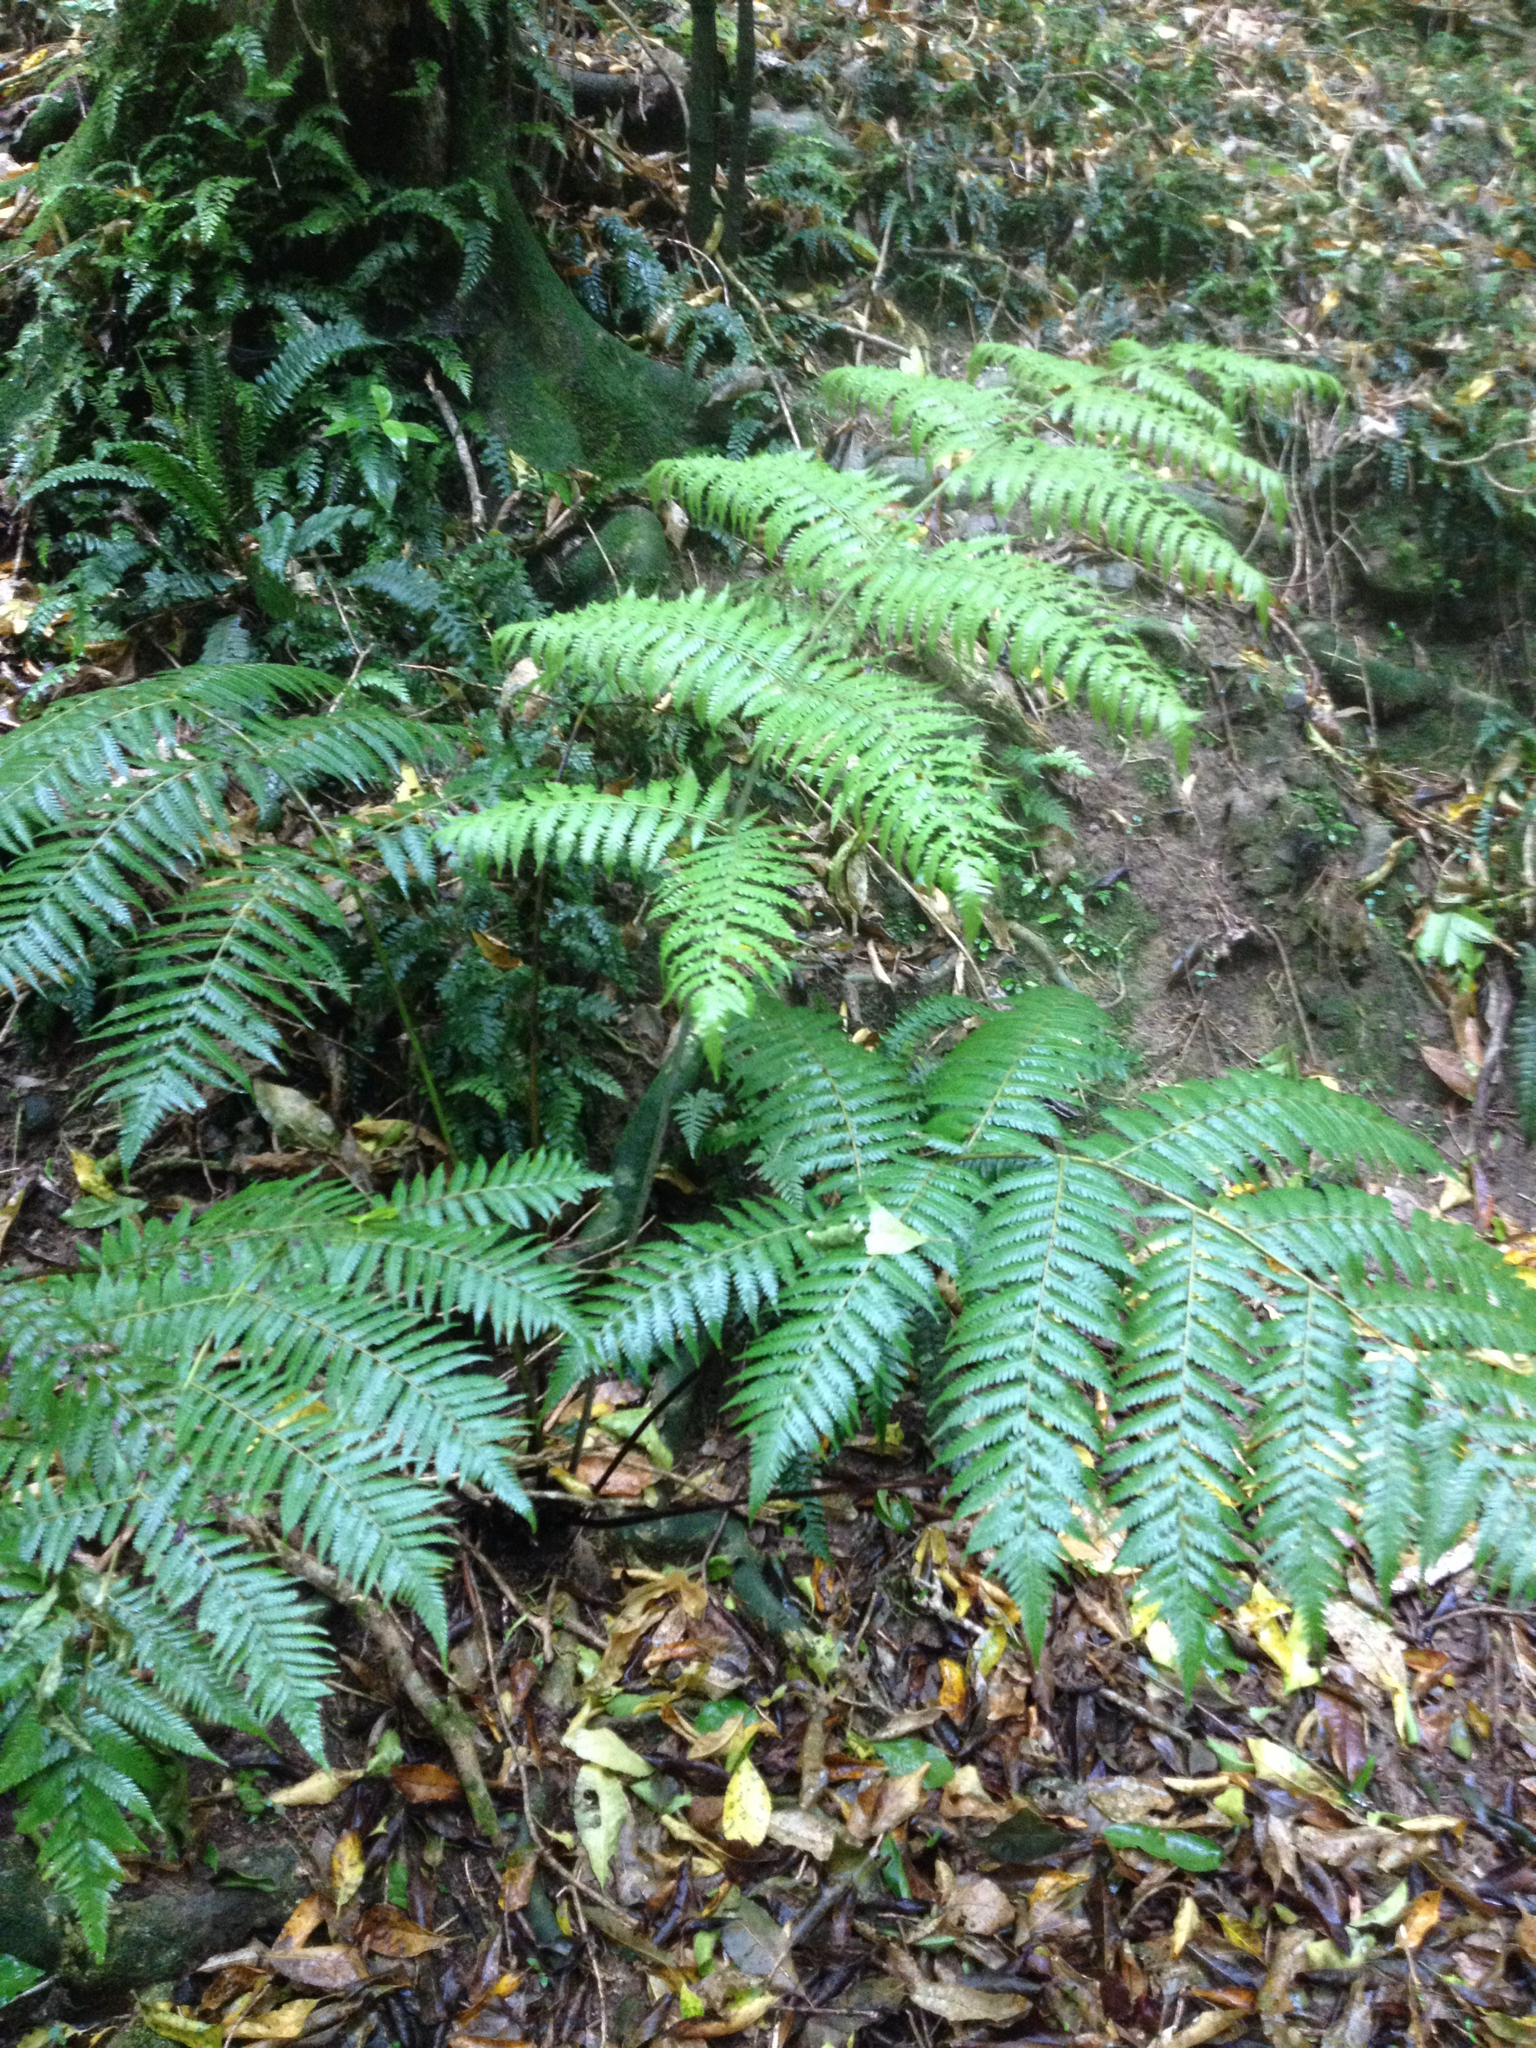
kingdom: Plantae
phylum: Tracheophyta
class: Polypodiopsida
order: Cyatheales
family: Cyatheaceae
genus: Alsophila
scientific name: Alsophila dealbata
